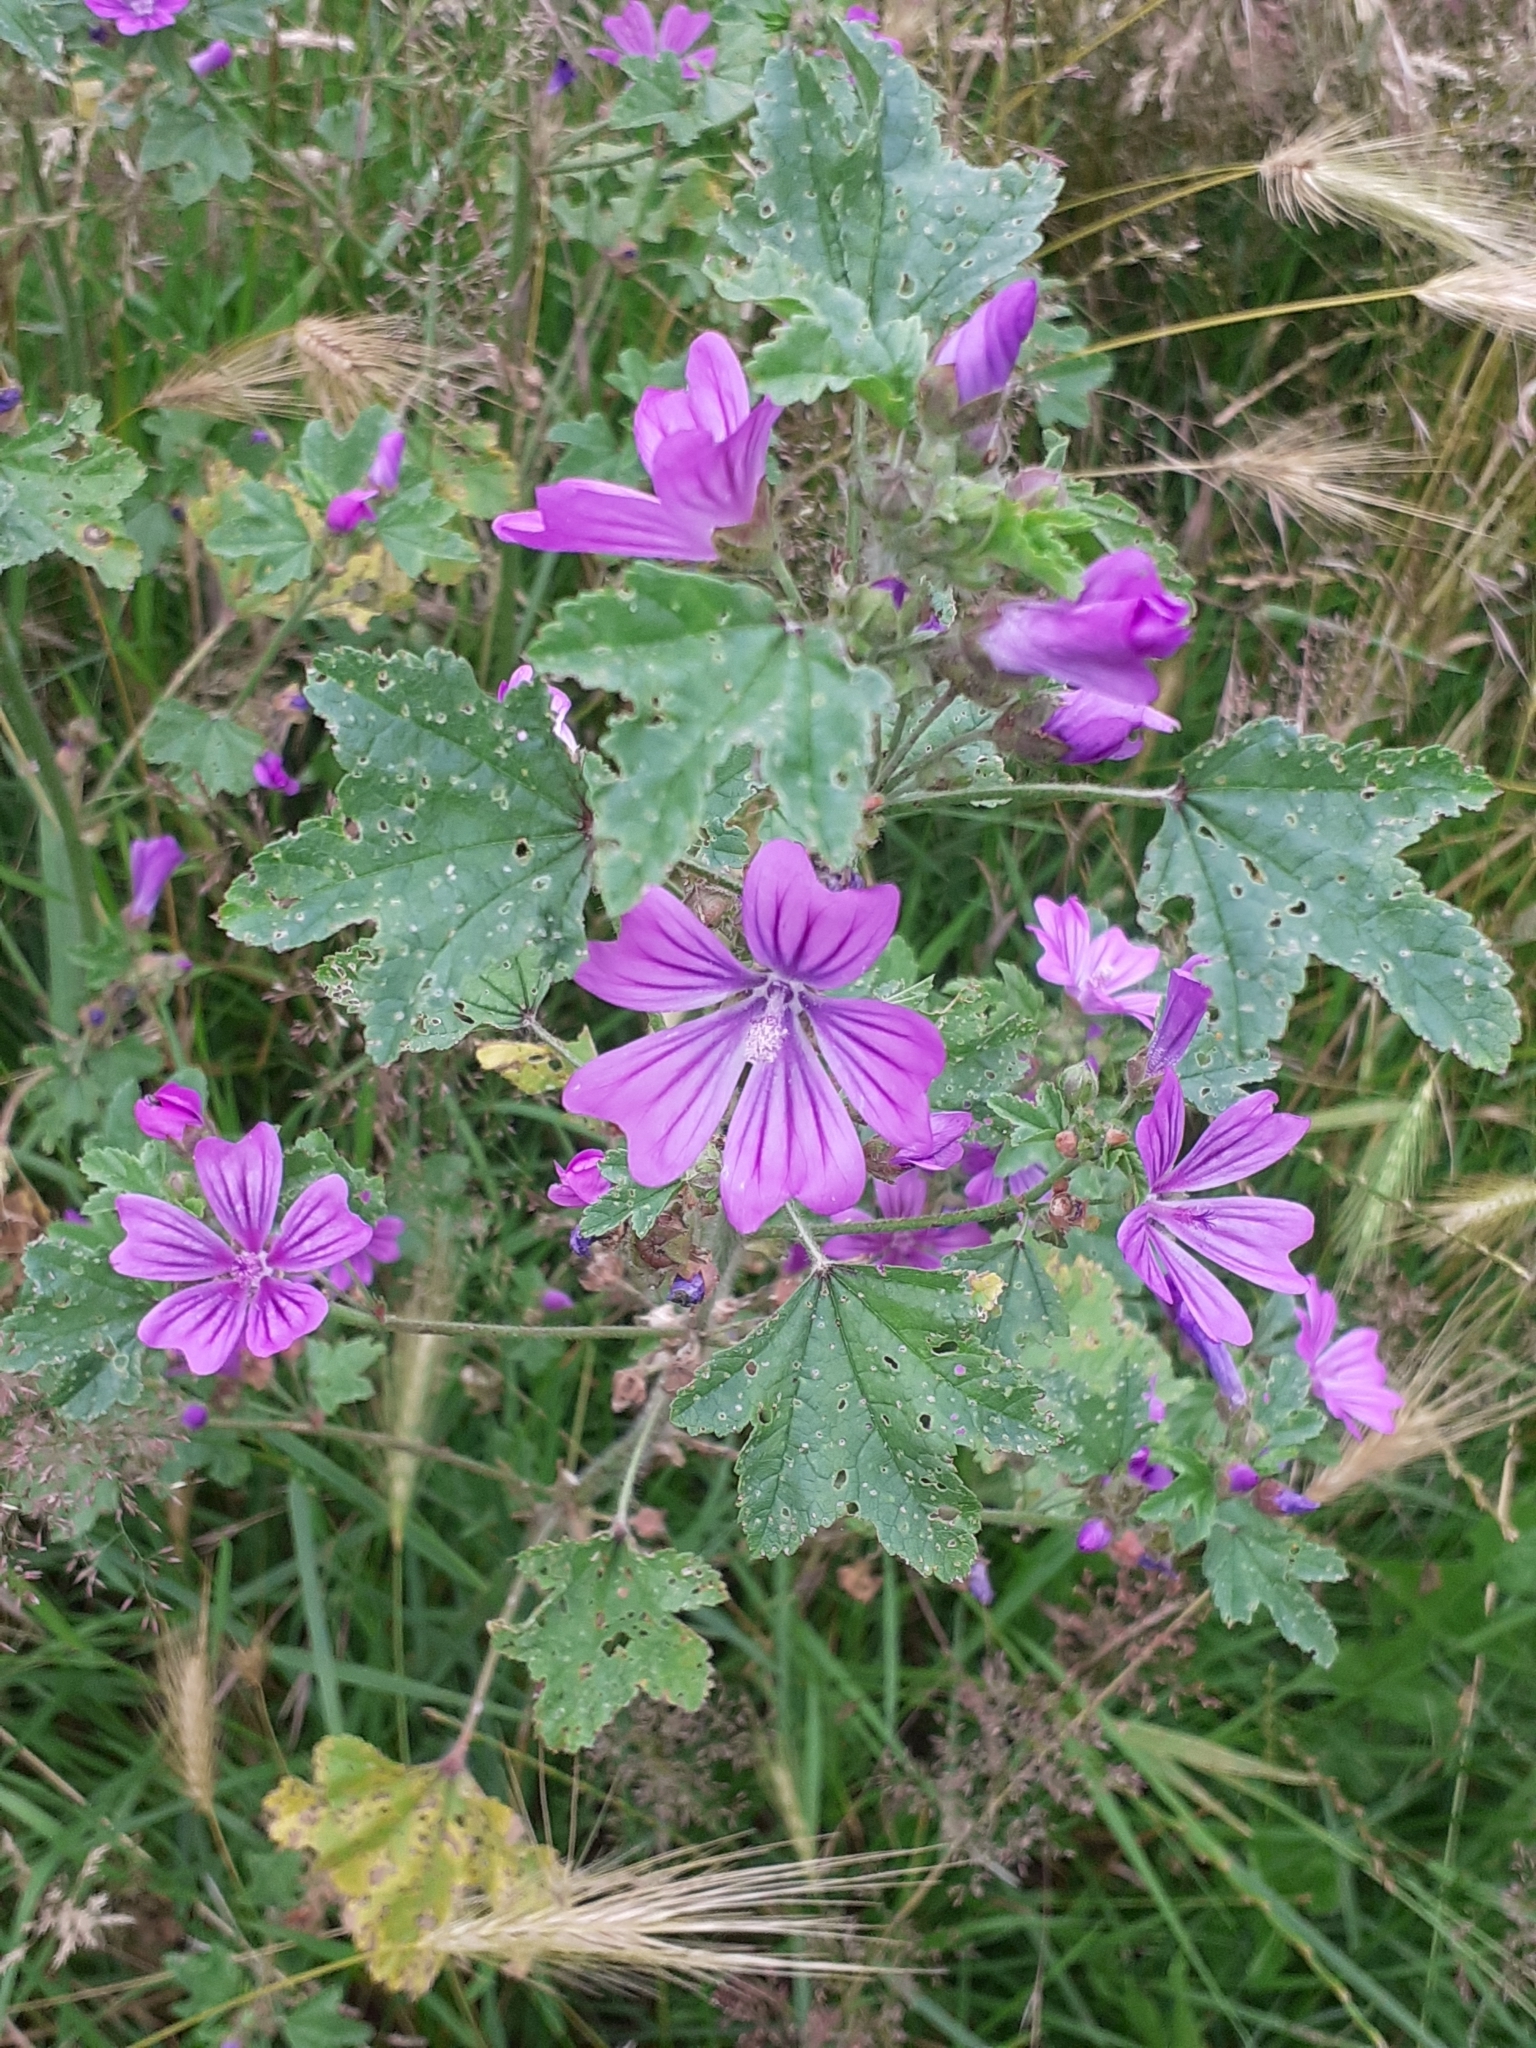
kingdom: Plantae
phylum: Tracheophyta
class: Magnoliopsida
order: Malvales
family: Malvaceae
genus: Malva
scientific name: Malva sylvestris
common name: Common mallow
